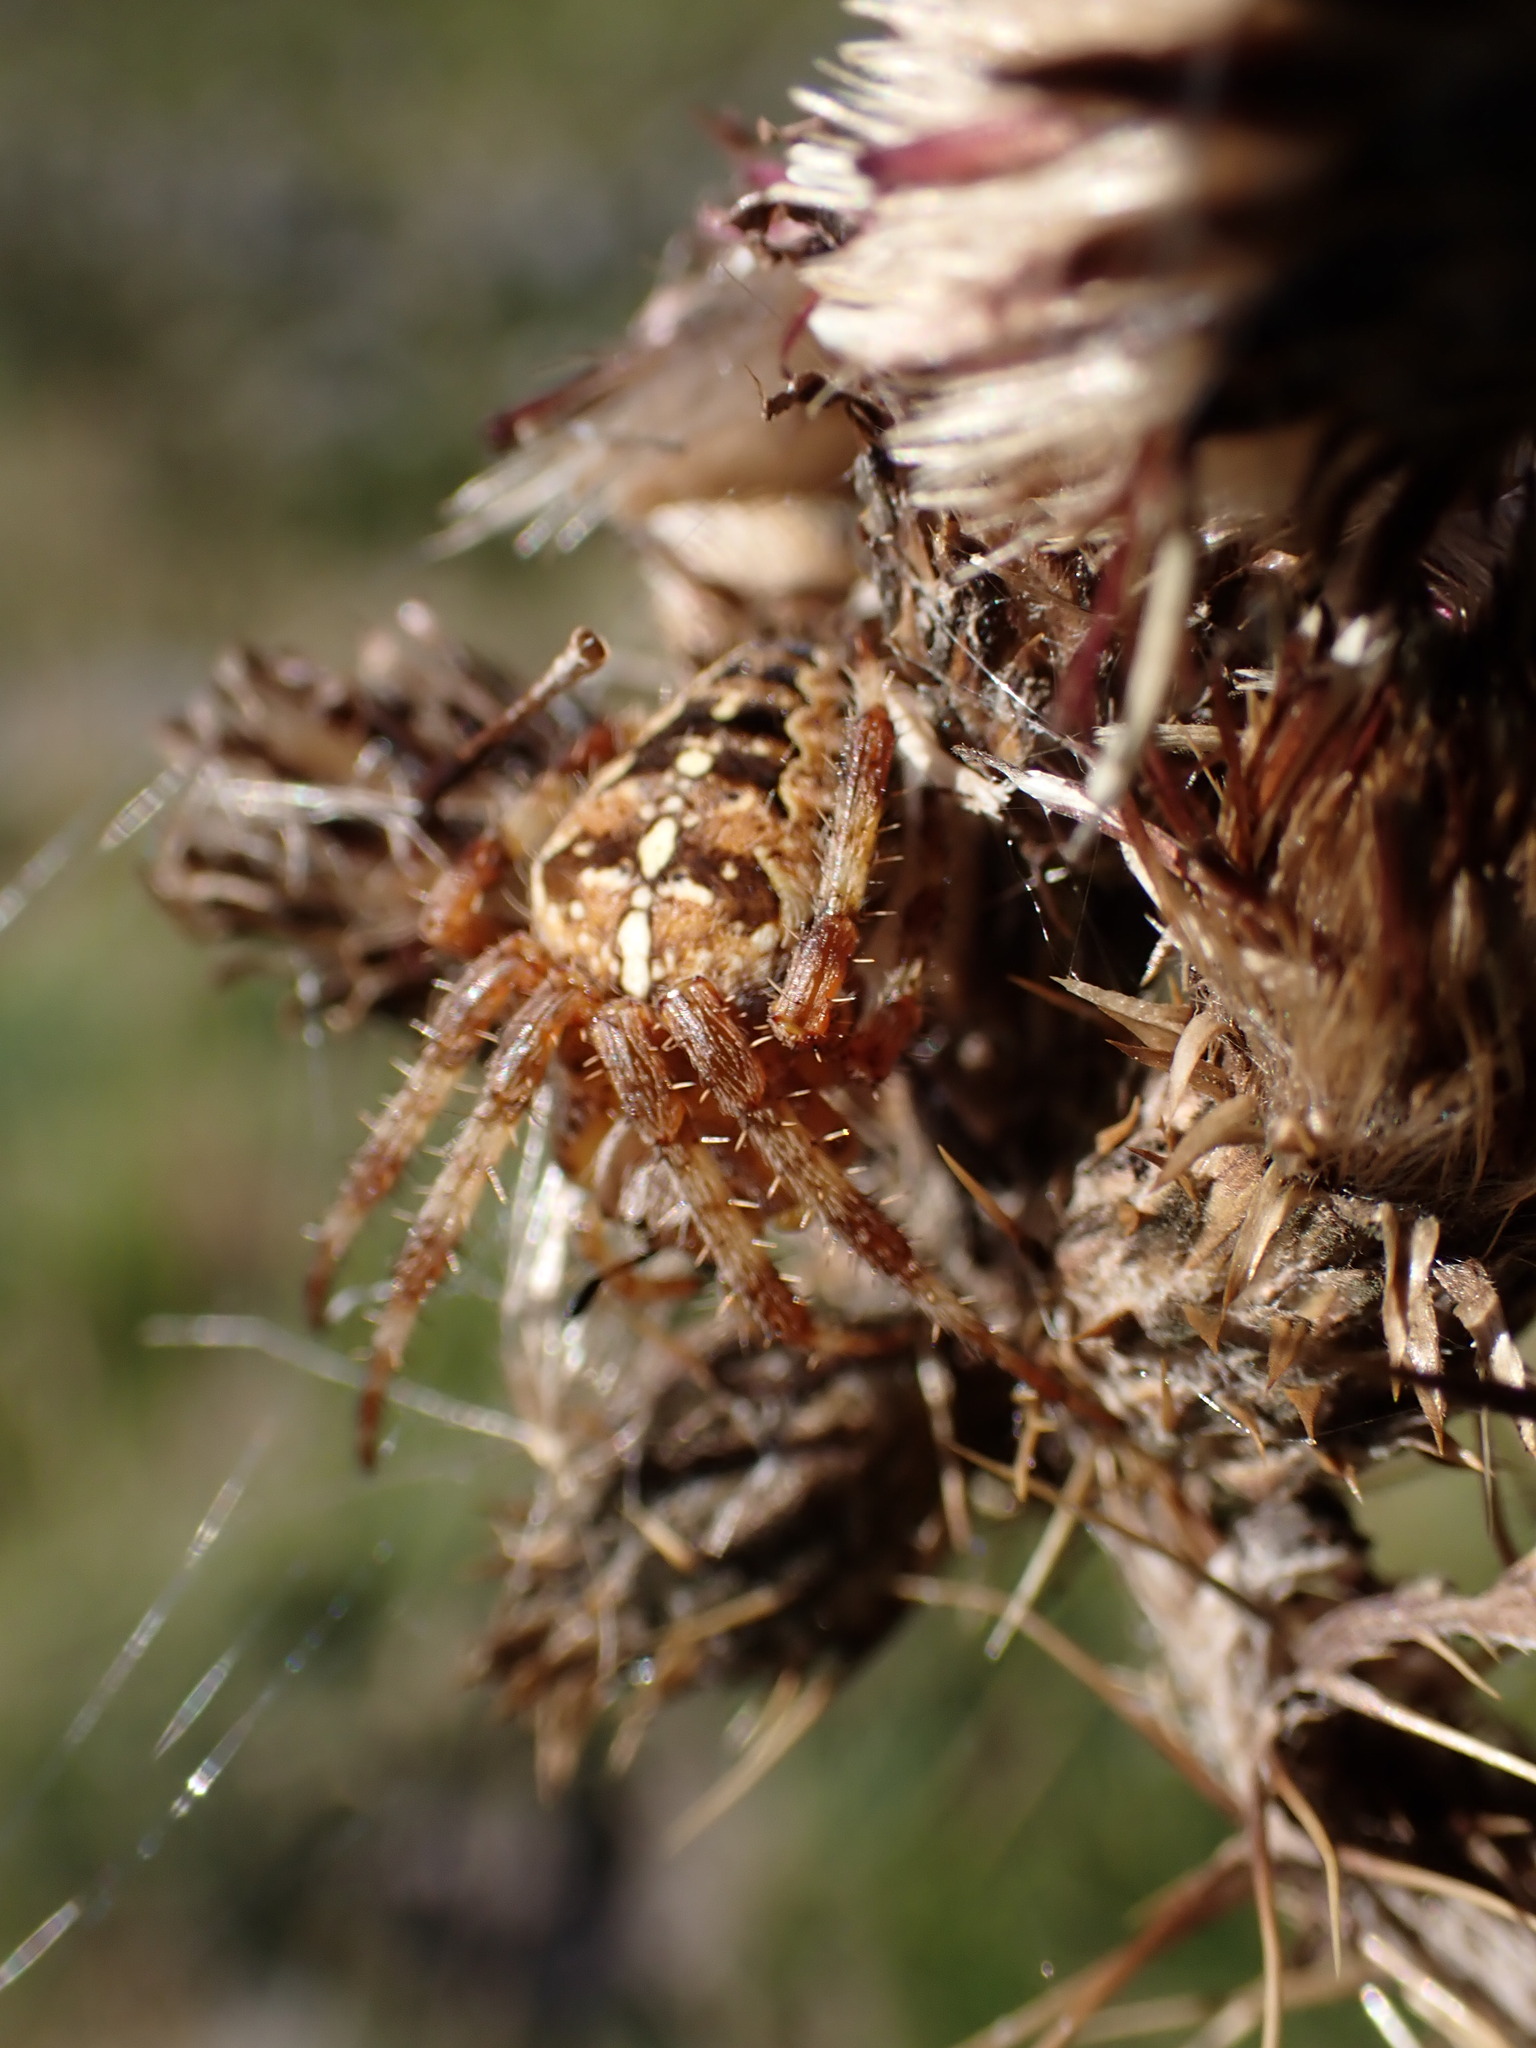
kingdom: Animalia
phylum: Arthropoda
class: Arachnida
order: Araneae
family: Araneidae
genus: Araneus
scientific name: Araneus diadematus
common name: Cross orbweaver
